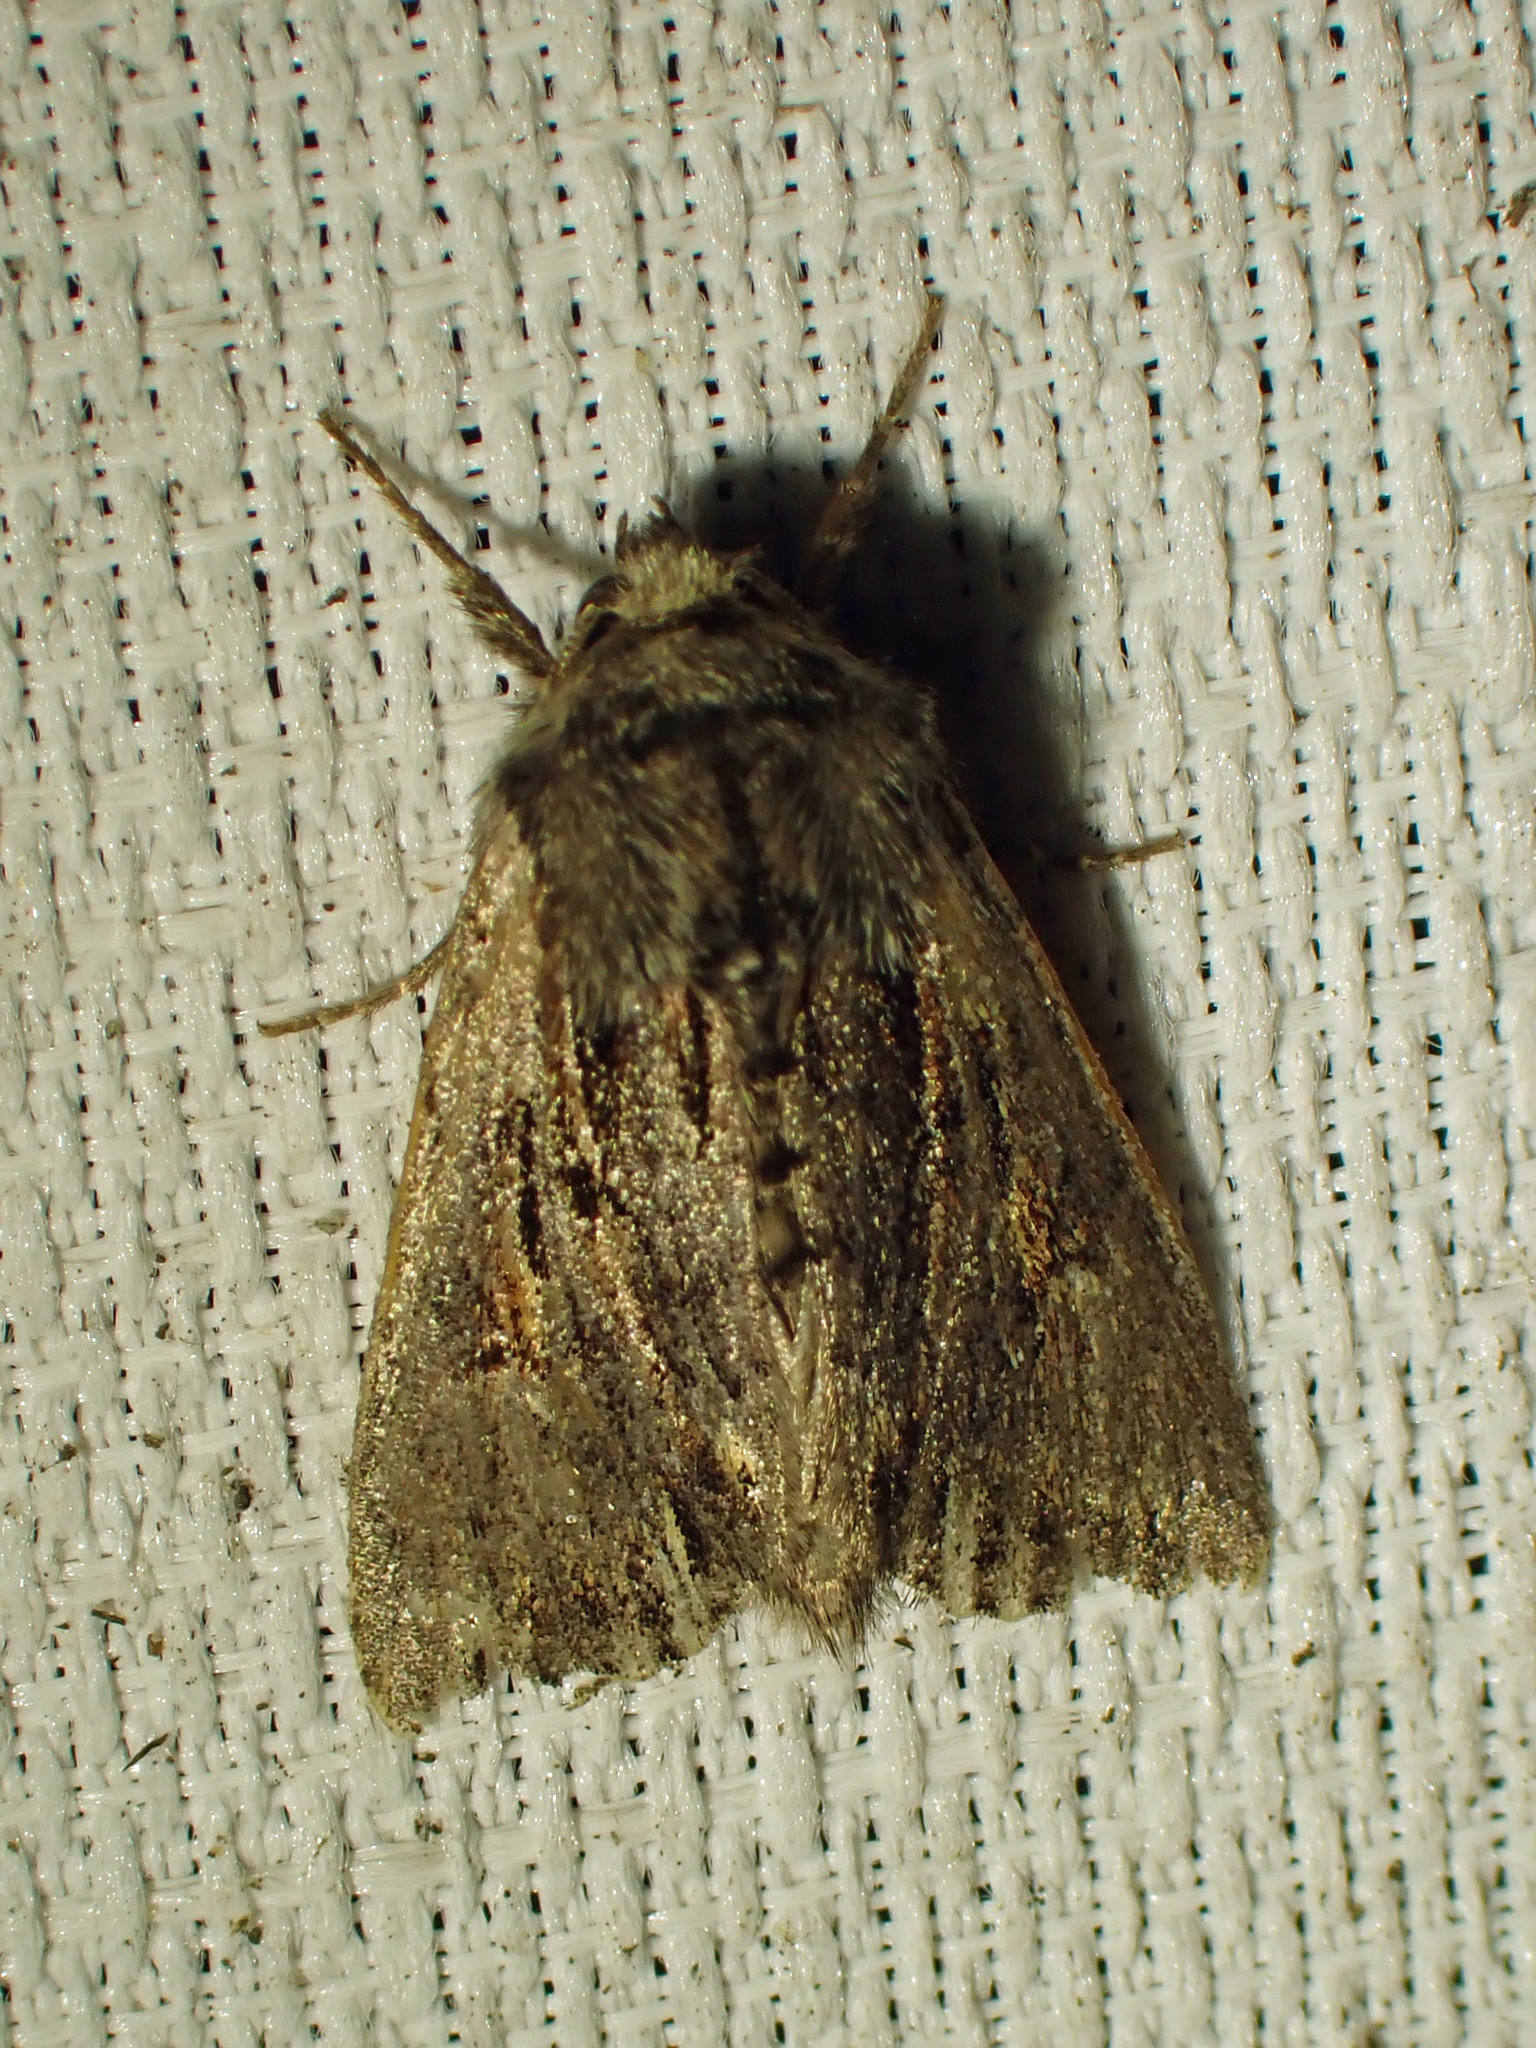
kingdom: Animalia
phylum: Arthropoda
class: Insecta
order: Lepidoptera
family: Noctuidae
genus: Achatia
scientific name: Achatia evicta
